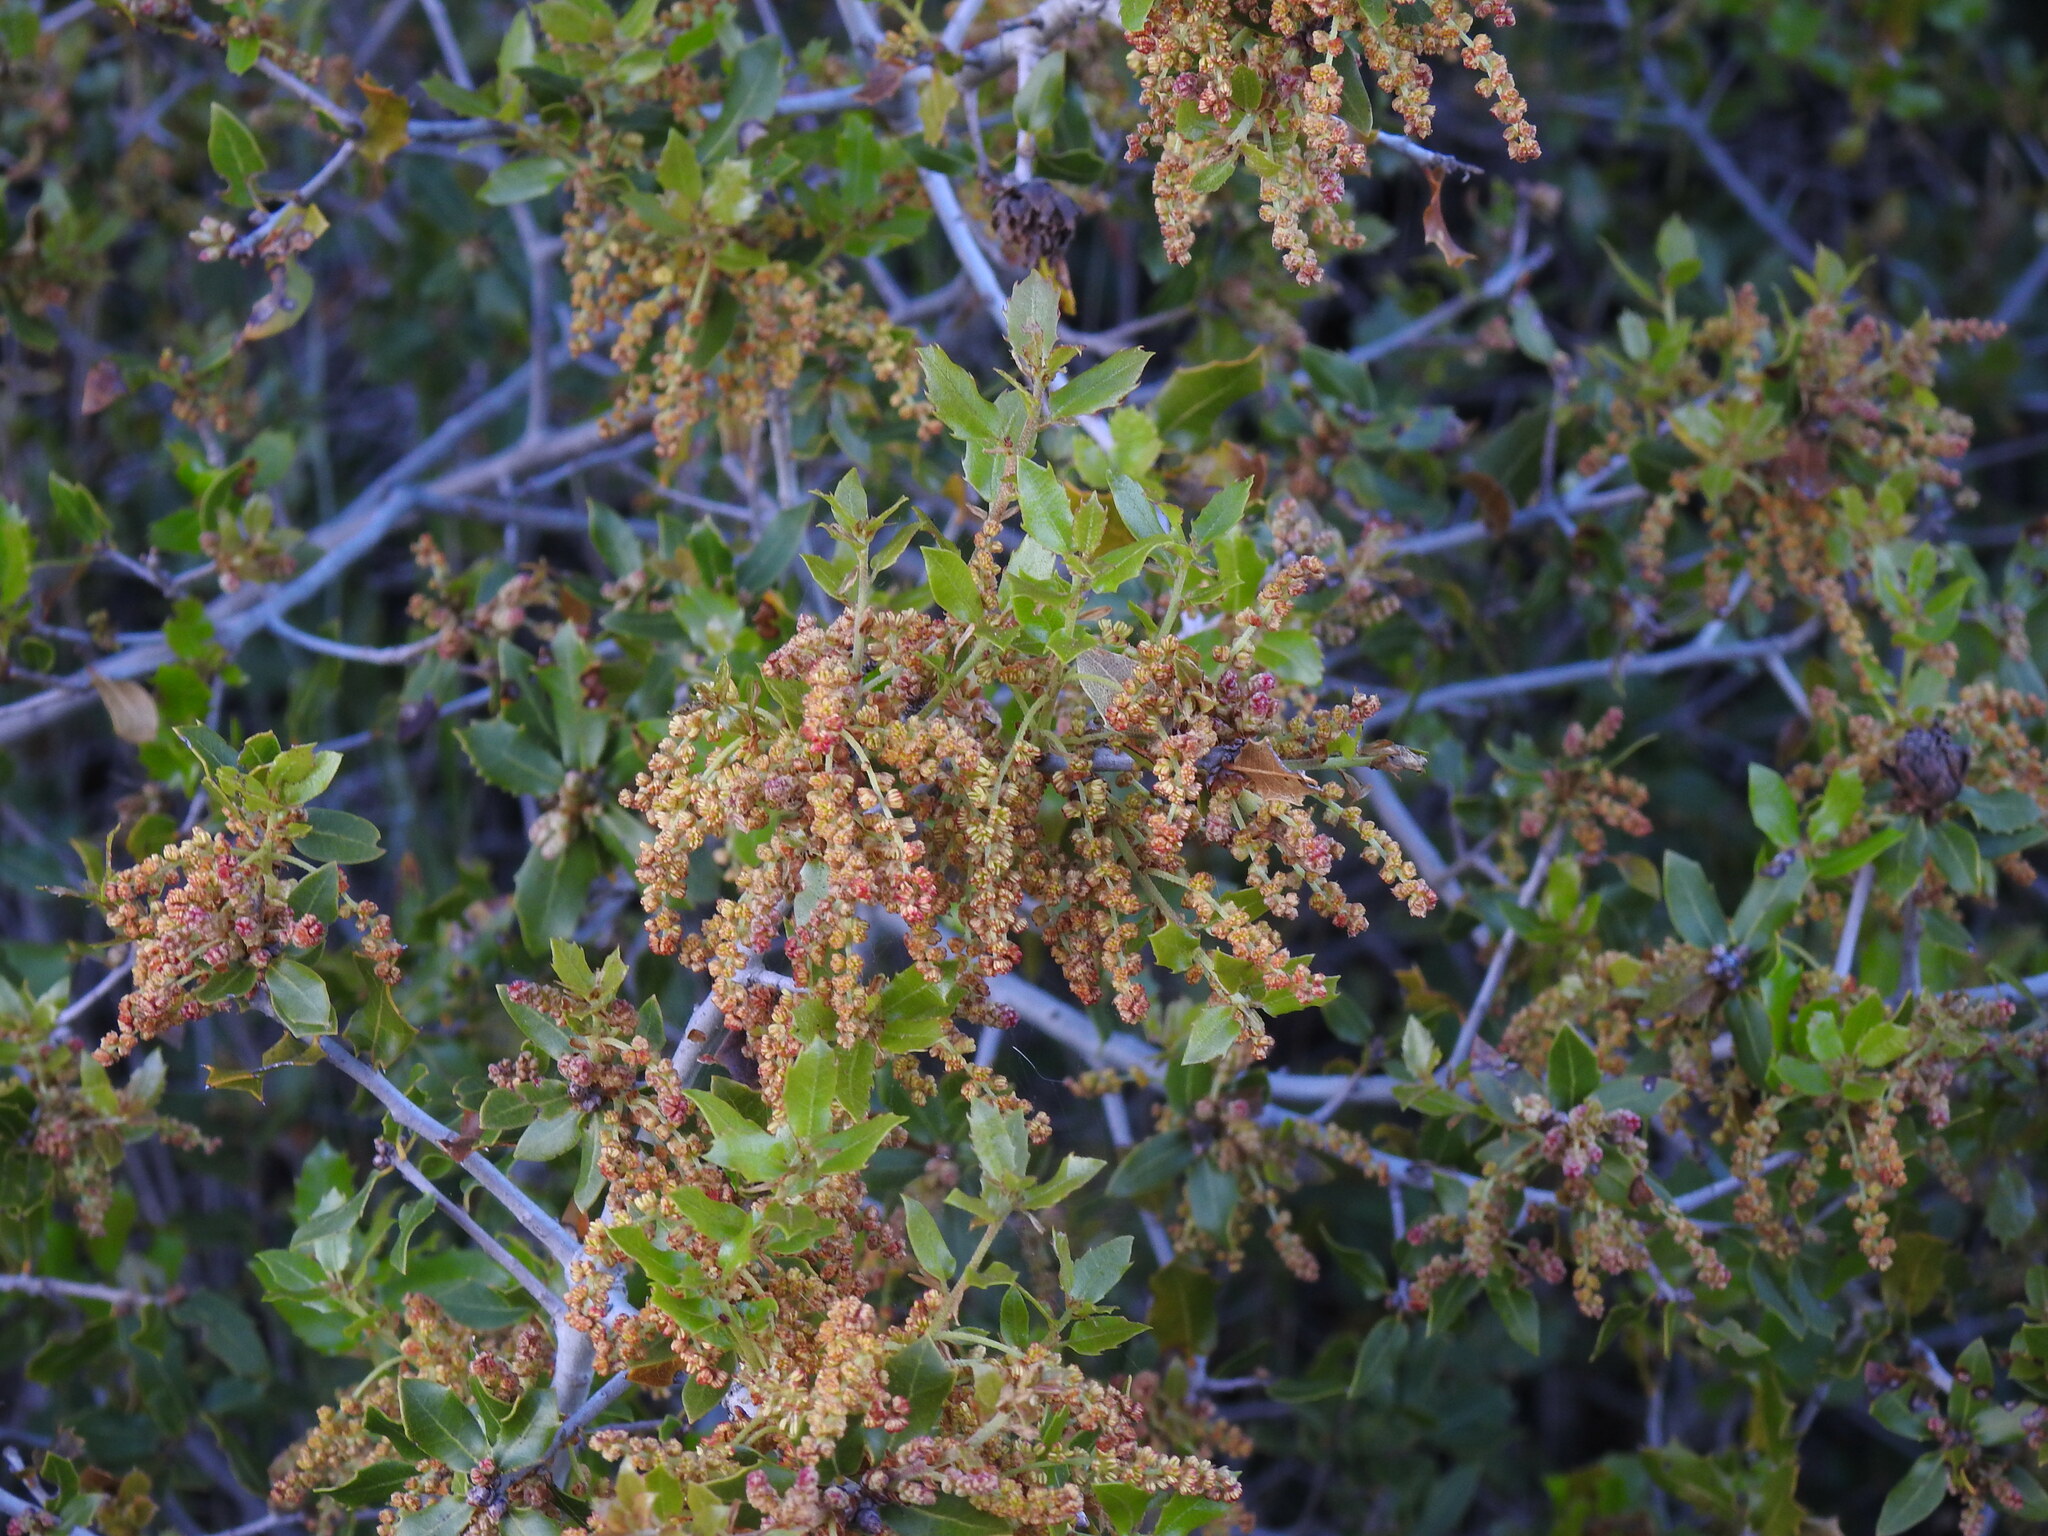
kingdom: Plantae
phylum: Tracheophyta
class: Magnoliopsida
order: Fagales
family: Fagaceae
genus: Quercus
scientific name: Quercus coccifera
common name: Kermes oak
